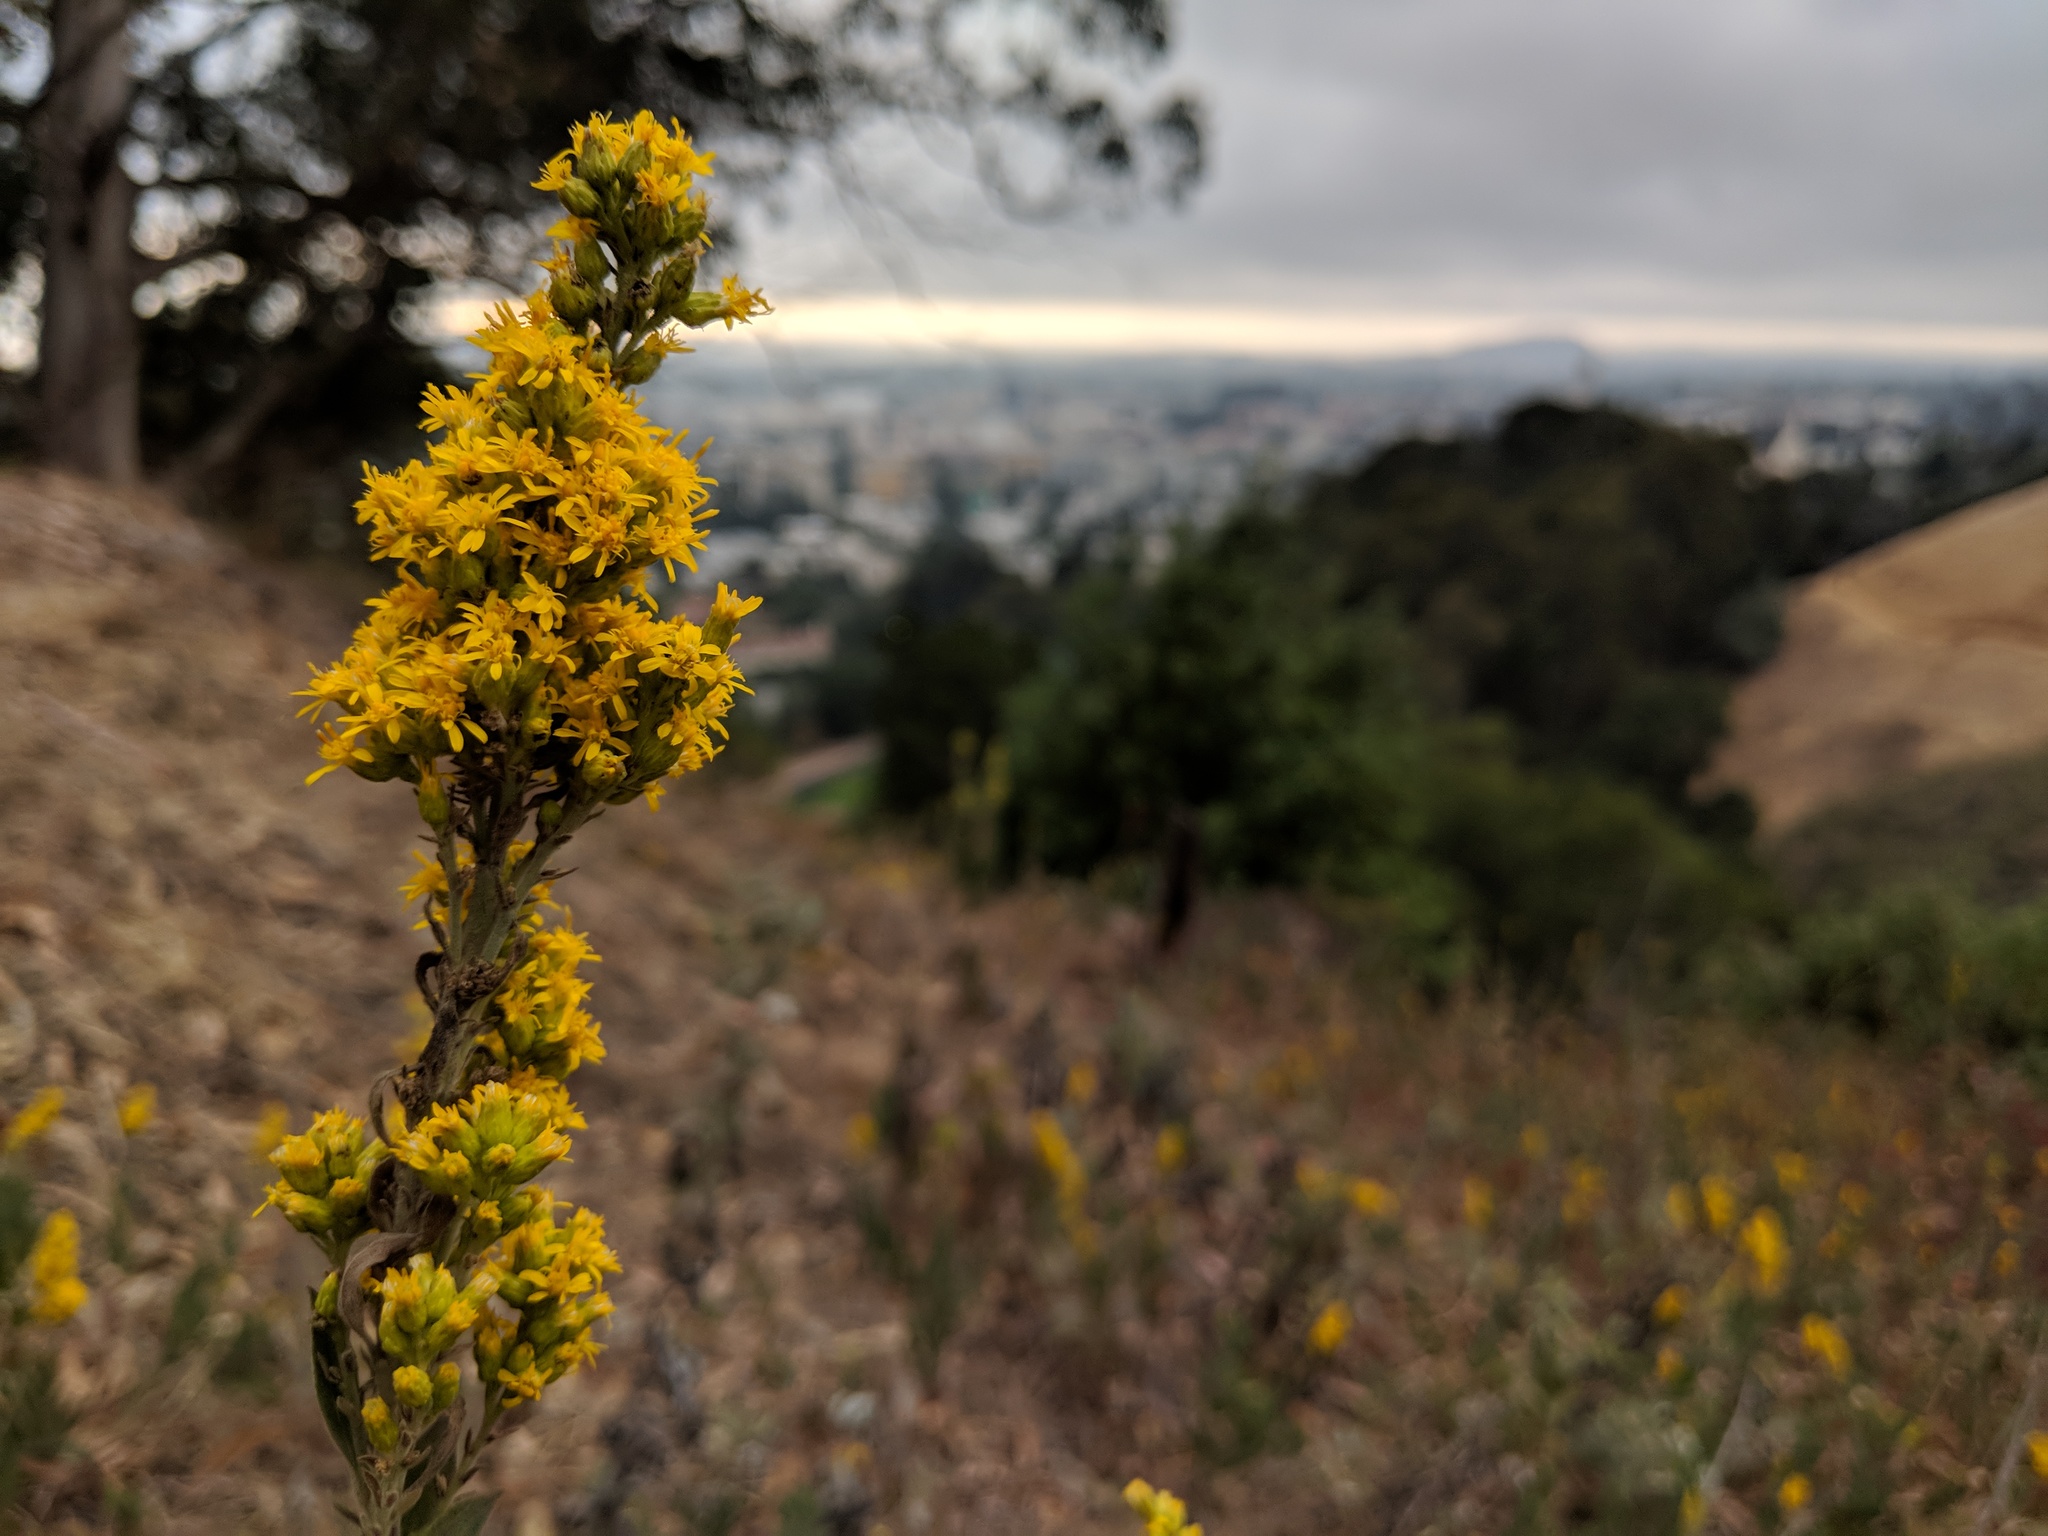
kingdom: Plantae
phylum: Tracheophyta
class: Magnoliopsida
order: Asterales
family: Asteraceae
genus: Solidago
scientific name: Solidago velutina
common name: Three-nerve goldenrod
